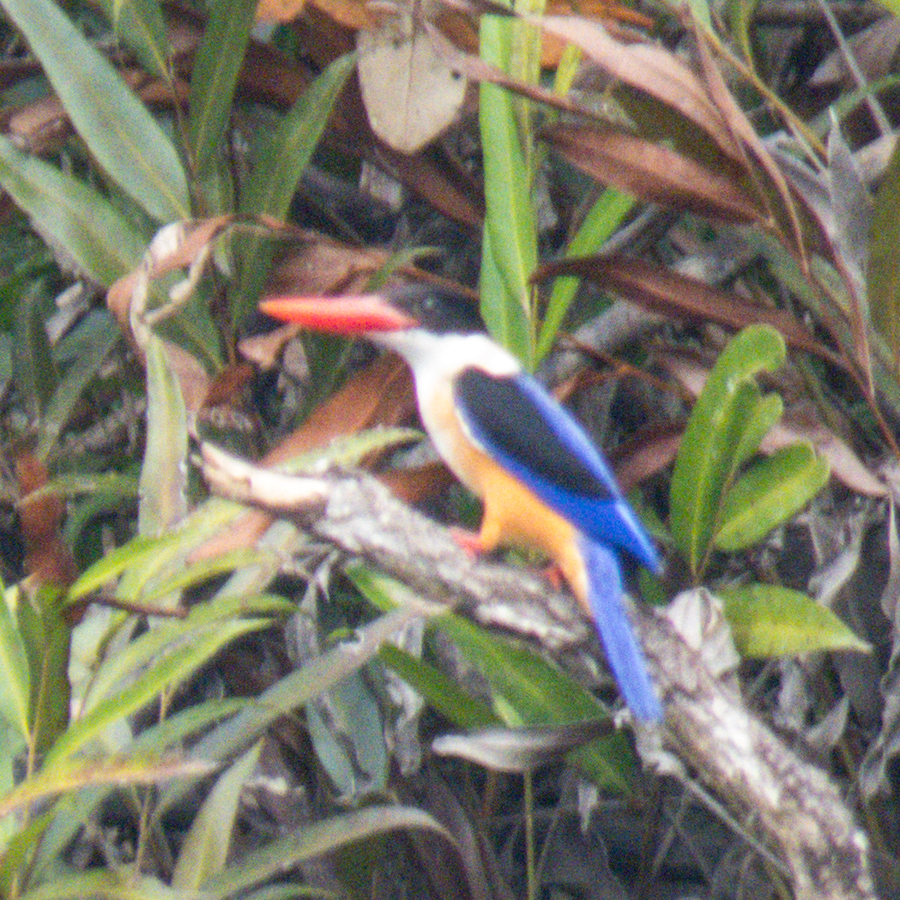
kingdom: Animalia
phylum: Chordata
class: Aves
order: Coraciiformes
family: Alcedinidae
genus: Halcyon
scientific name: Halcyon pileata
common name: Black-capped kingfisher
